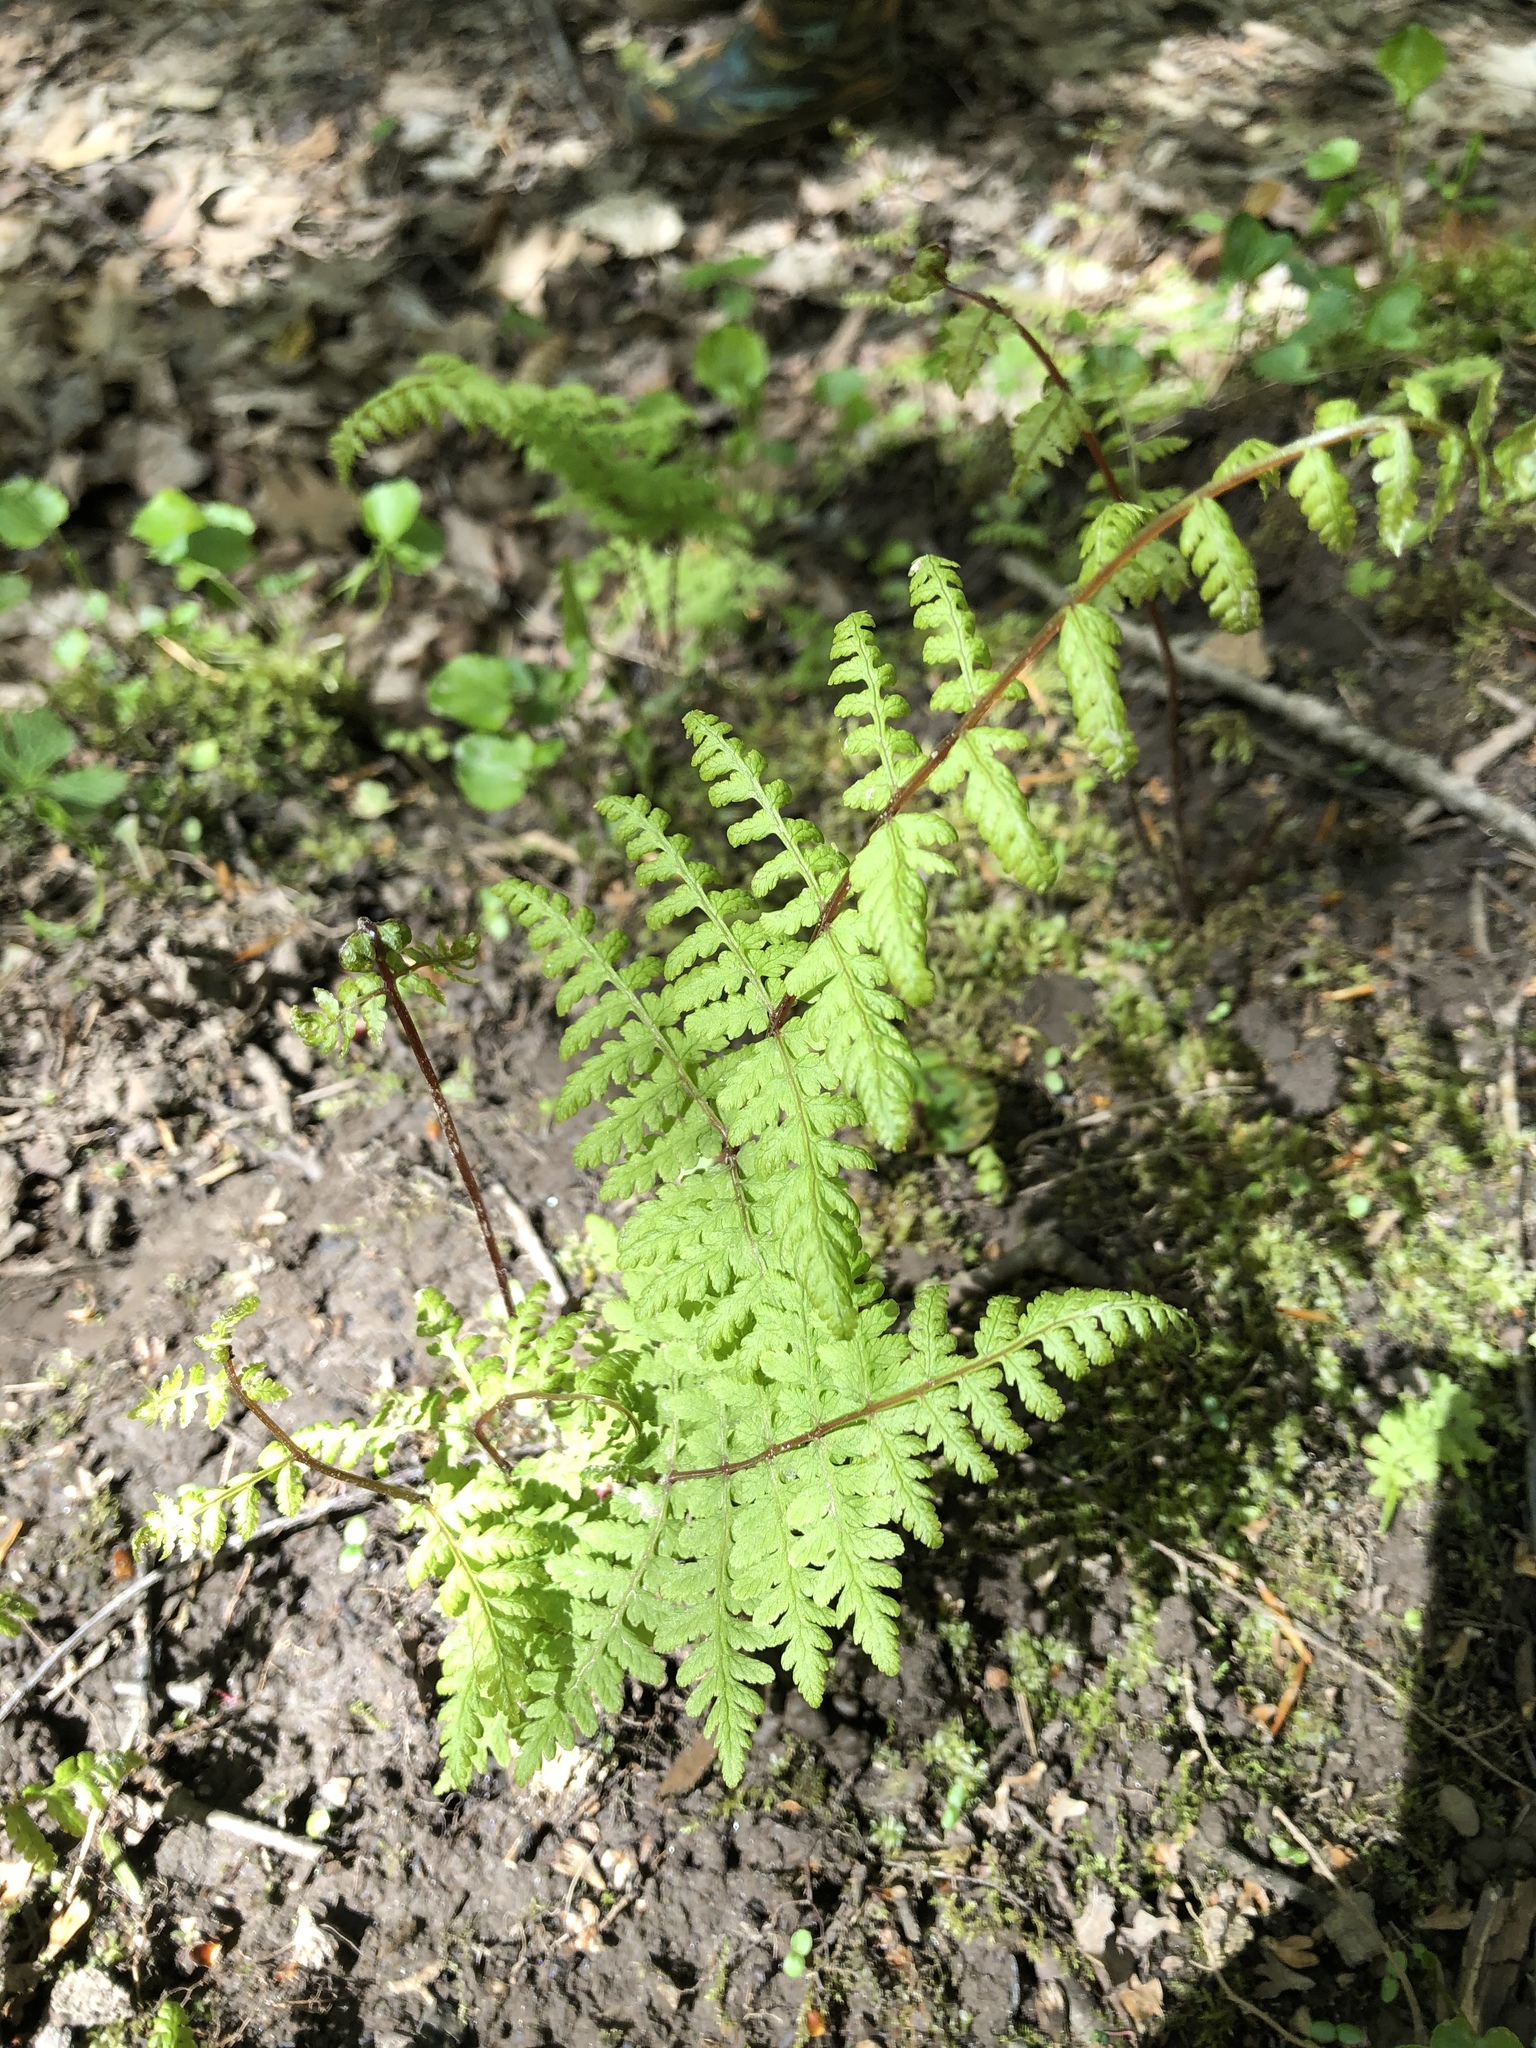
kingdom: Plantae
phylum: Tracheophyta
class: Polypodiopsida
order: Polypodiales
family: Cystopteridaceae
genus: Cystopteris
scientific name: Cystopteris bulbifera
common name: Bulblet bladder fern
